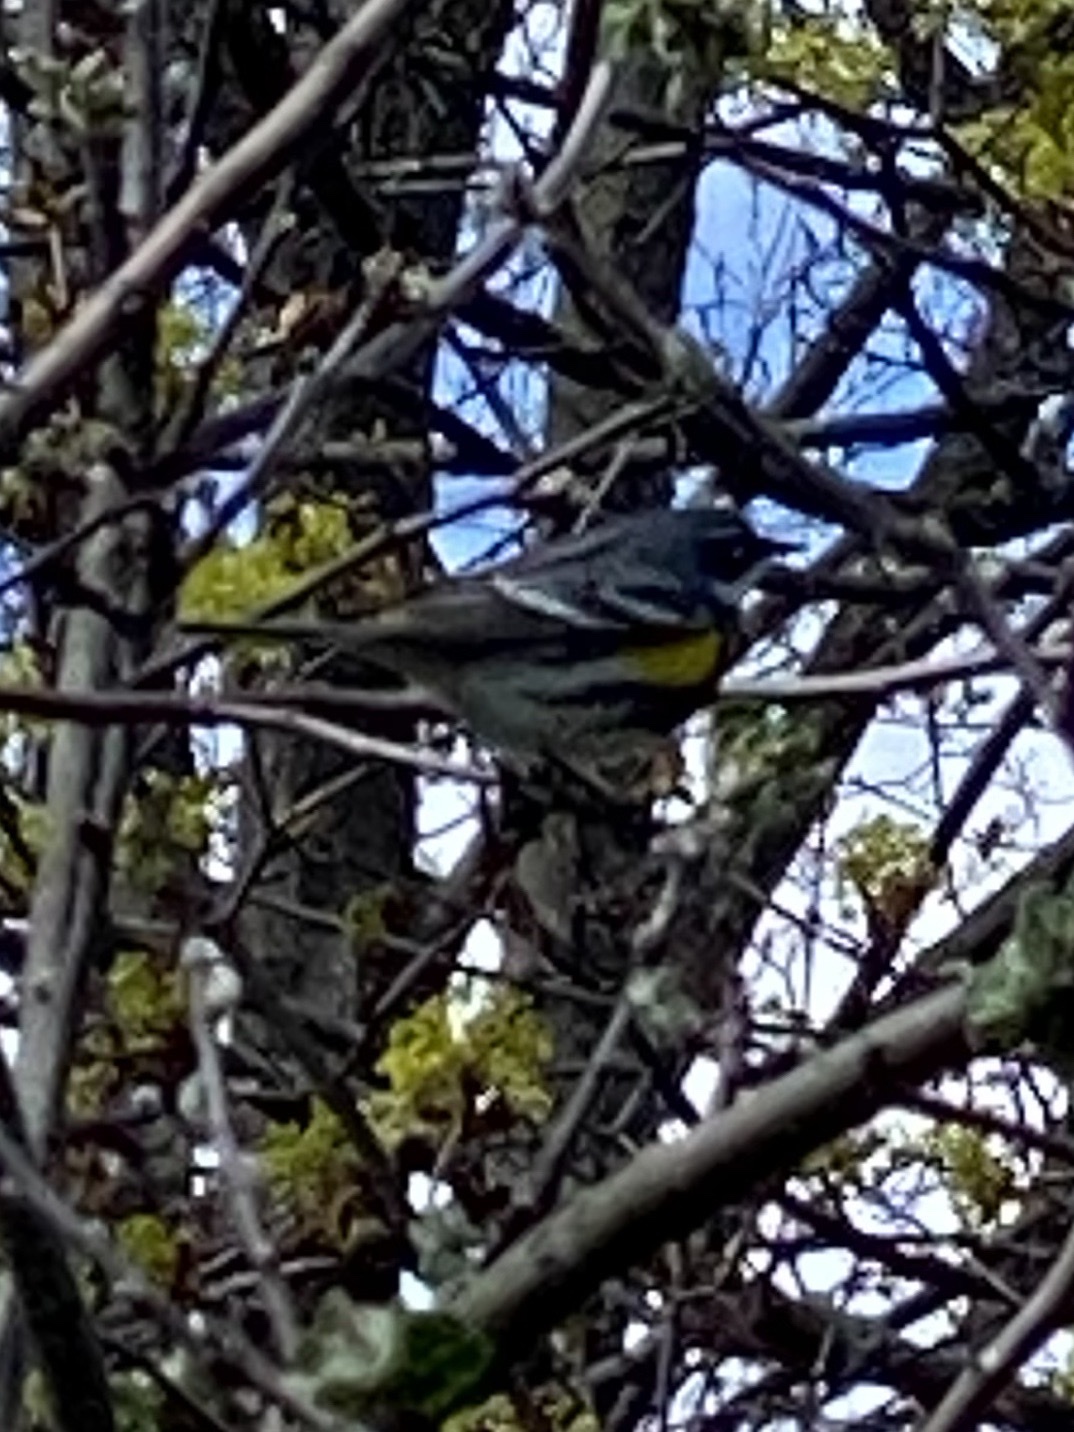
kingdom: Animalia
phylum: Chordata
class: Aves
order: Passeriformes
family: Parulidae
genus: Setophaga
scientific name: Setophaga coronata
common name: Myrtle warbler
